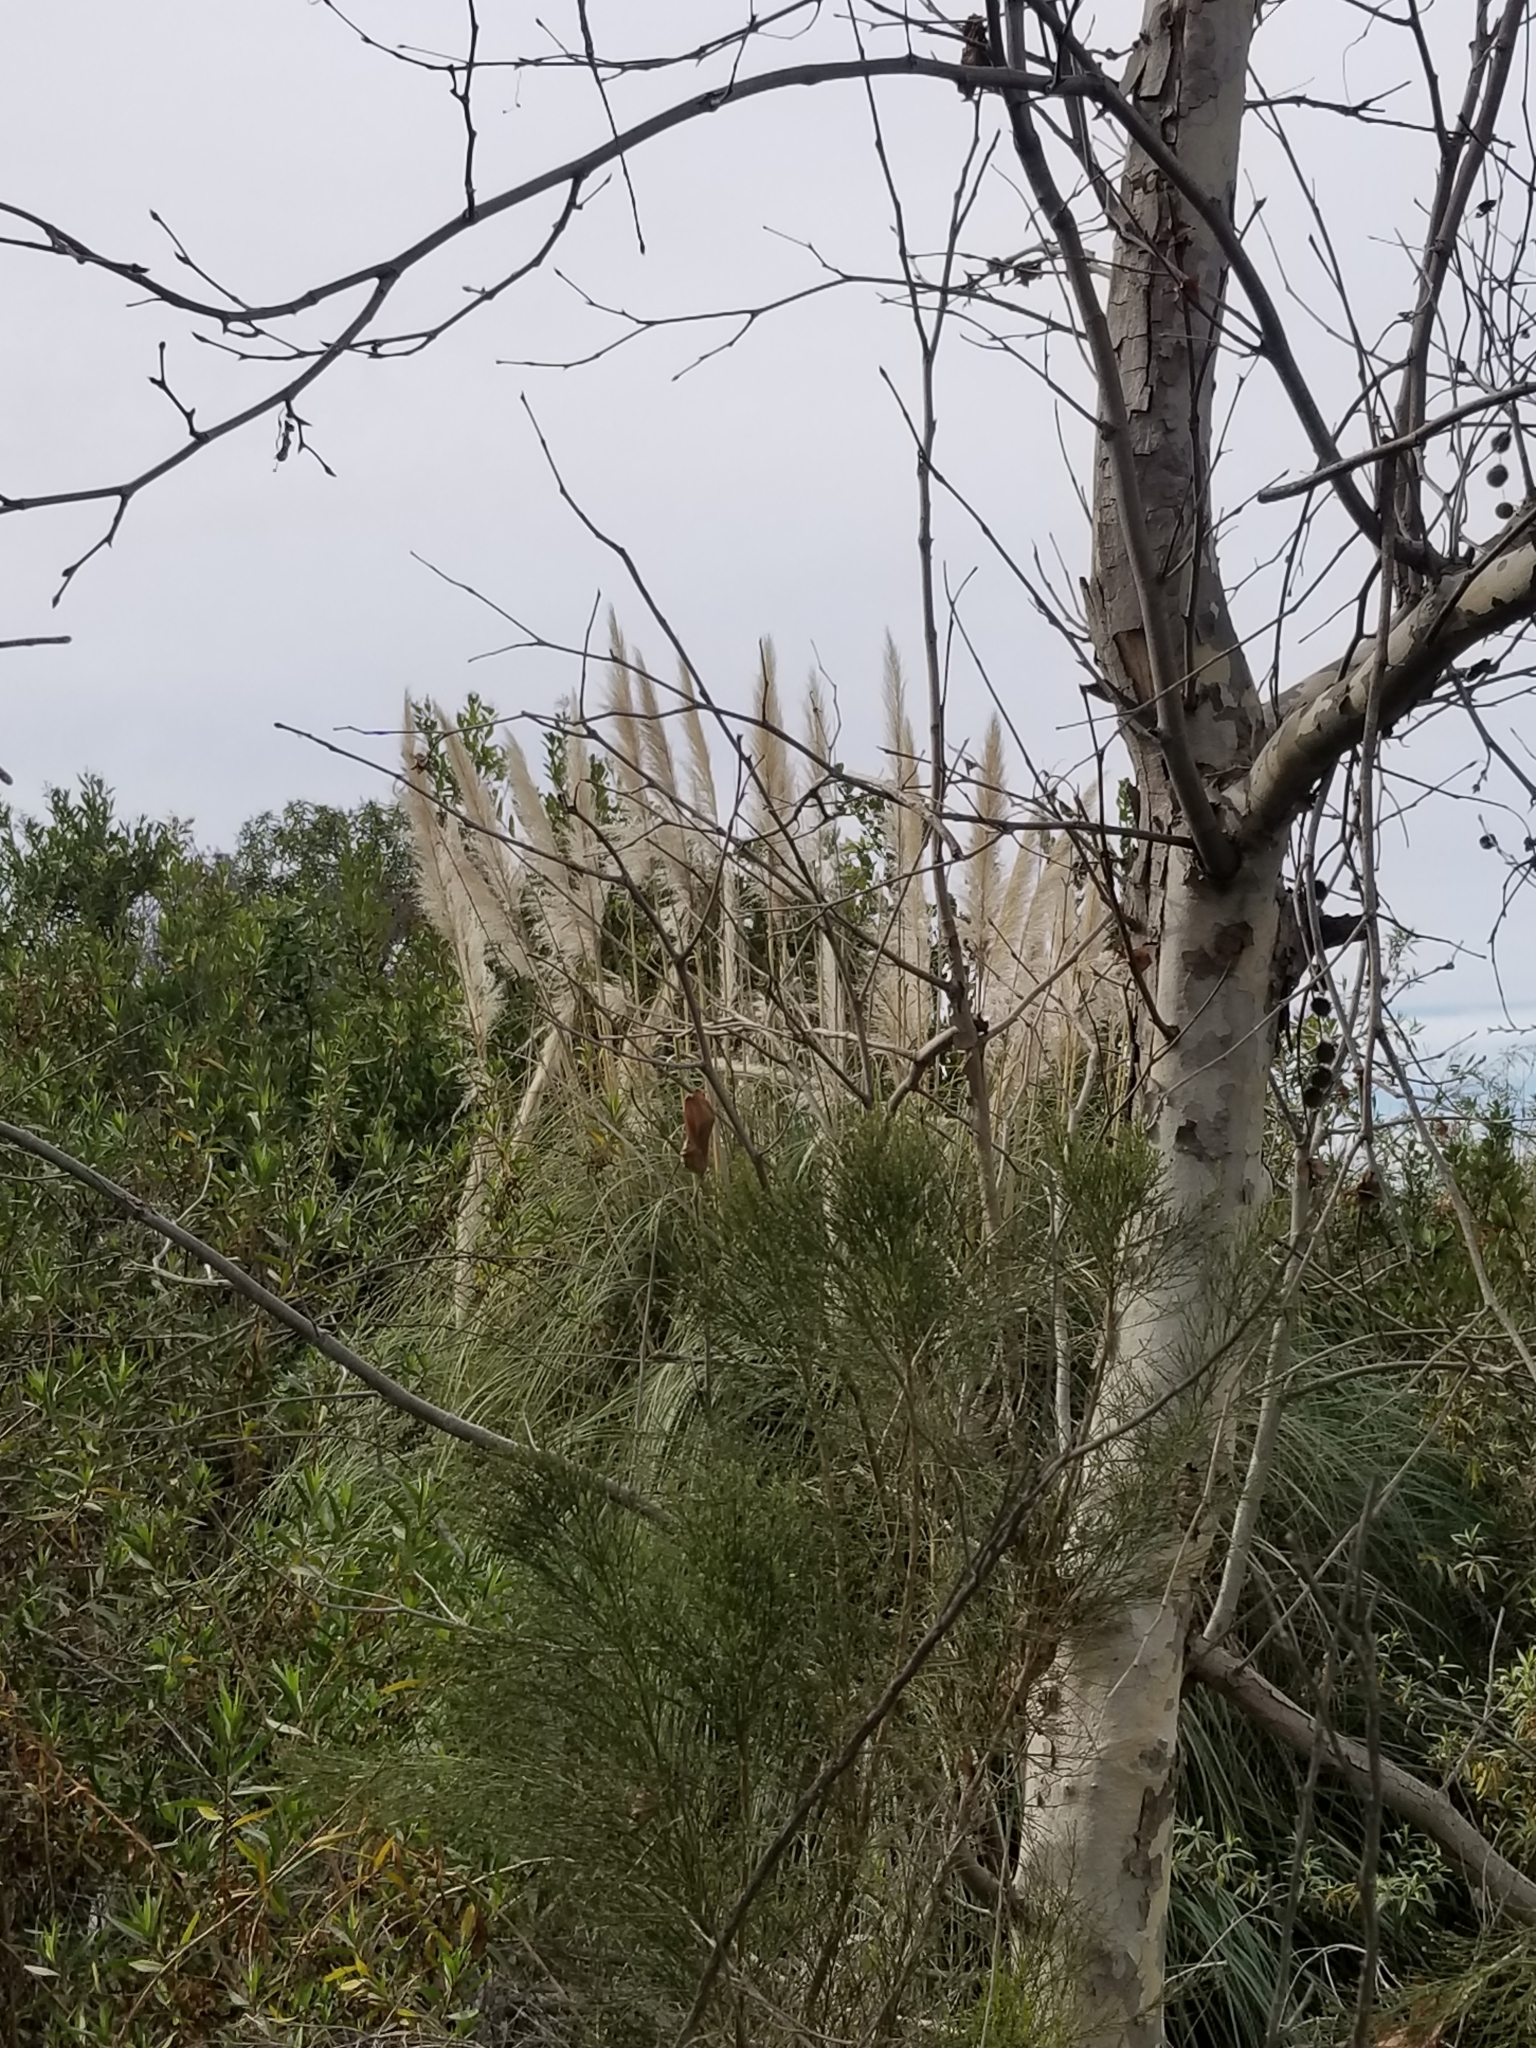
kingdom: Plantae
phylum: Tracheophyta
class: Liliopsida
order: Poales
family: Poaceae
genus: Cortaderia
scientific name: Cortaderia selloana
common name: Uruguayan pampas grass
